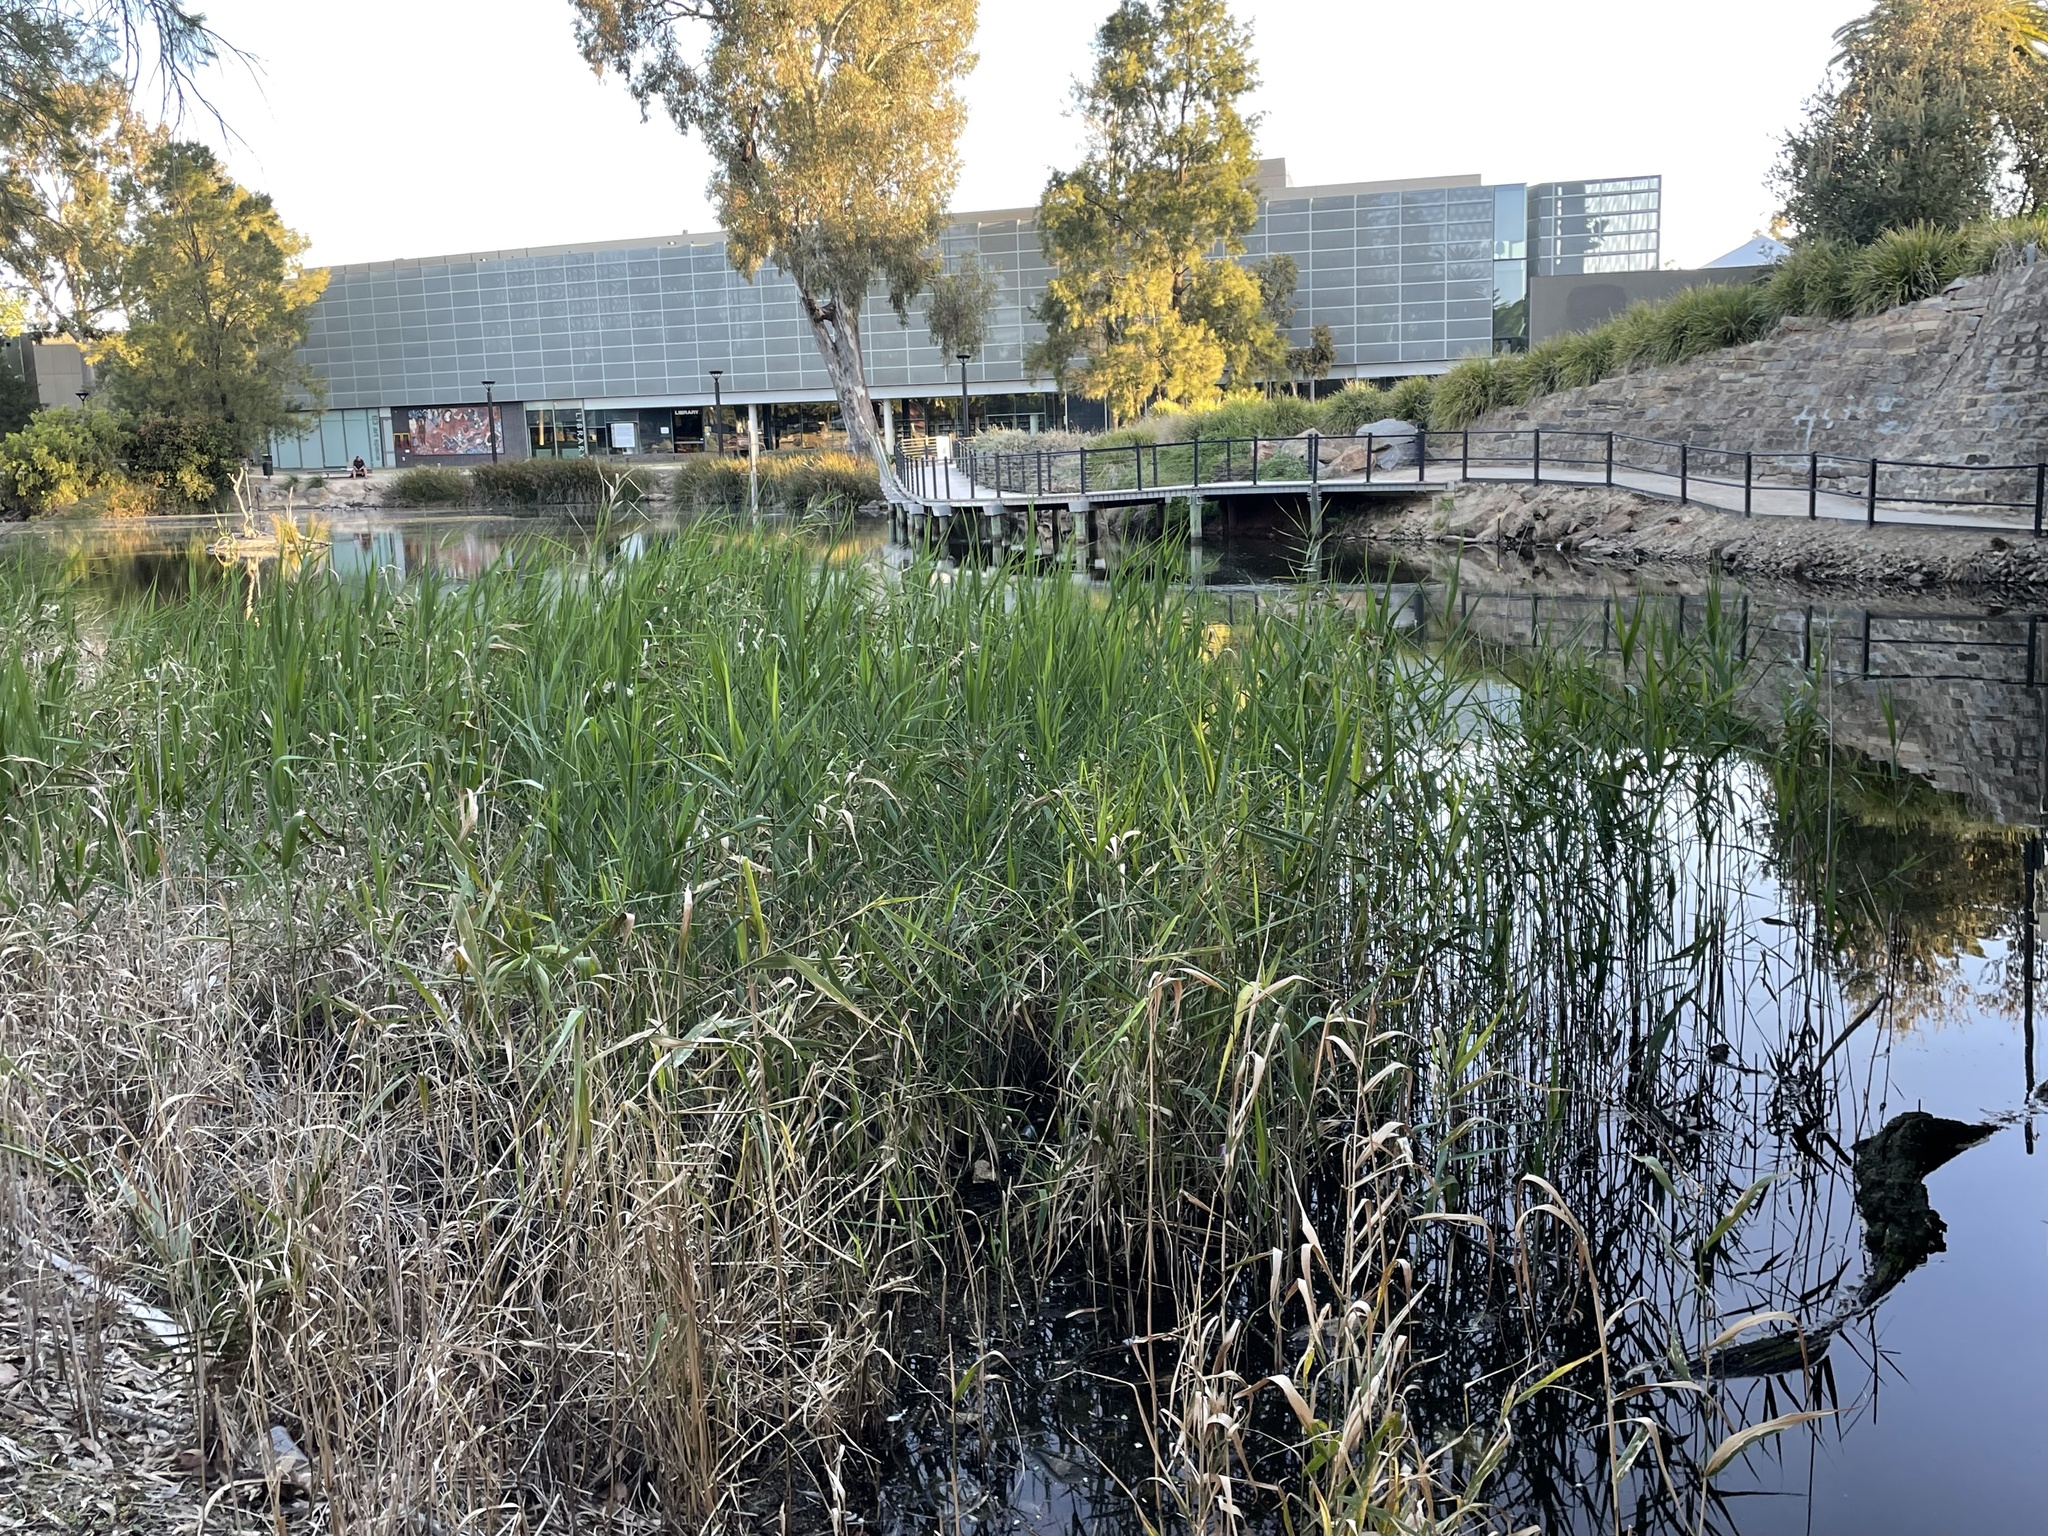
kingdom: Plantae
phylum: Tracheophyta
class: Liliopsida
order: Poales
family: Poaceae
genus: Phragmites
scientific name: Phragmites australis
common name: Common reed
